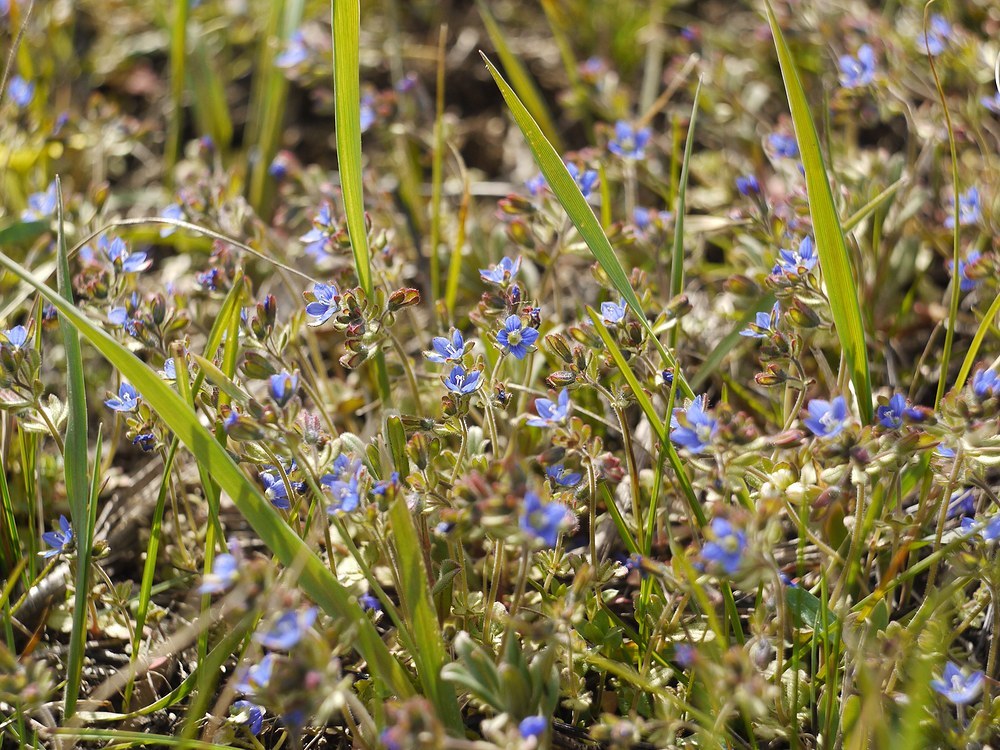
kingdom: Plantae
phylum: Tracheophyta
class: Magnoliopsida
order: Lamiales
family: Plantaginaceae
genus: Veronica
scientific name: Veronica triphyllos
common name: Fingered speedwell
